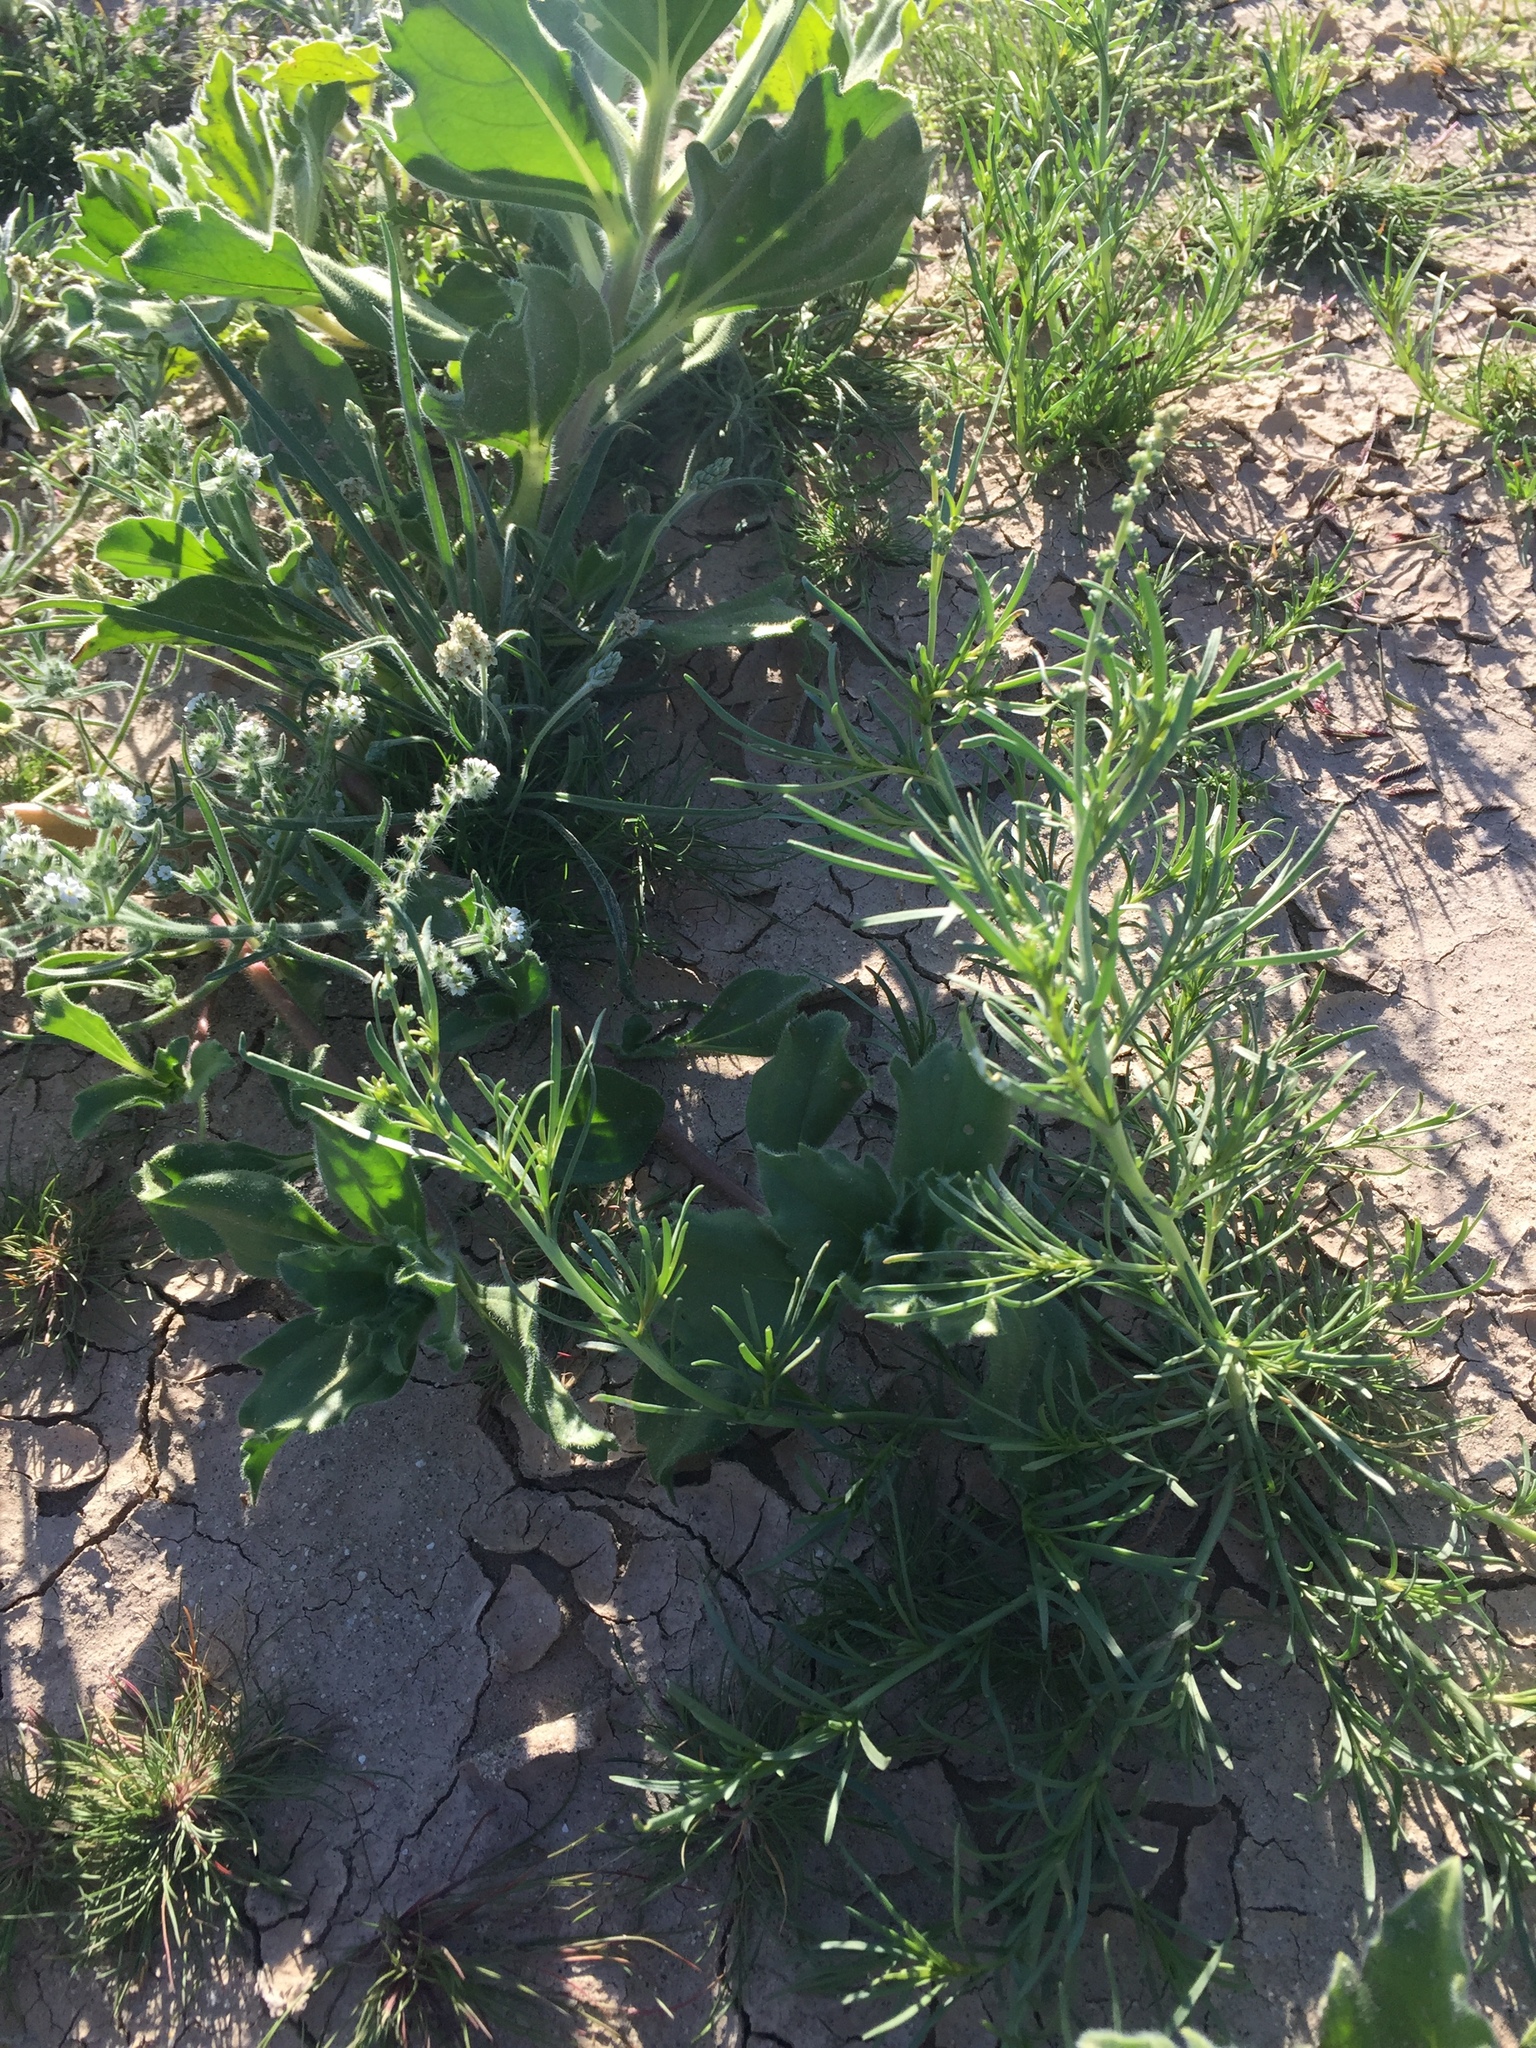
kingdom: Plantae
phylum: Tracheophyta
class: Magnoliopsida
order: Brassicales
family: Resedaceae
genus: Oligomeris
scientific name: Oligomeris linifolia
